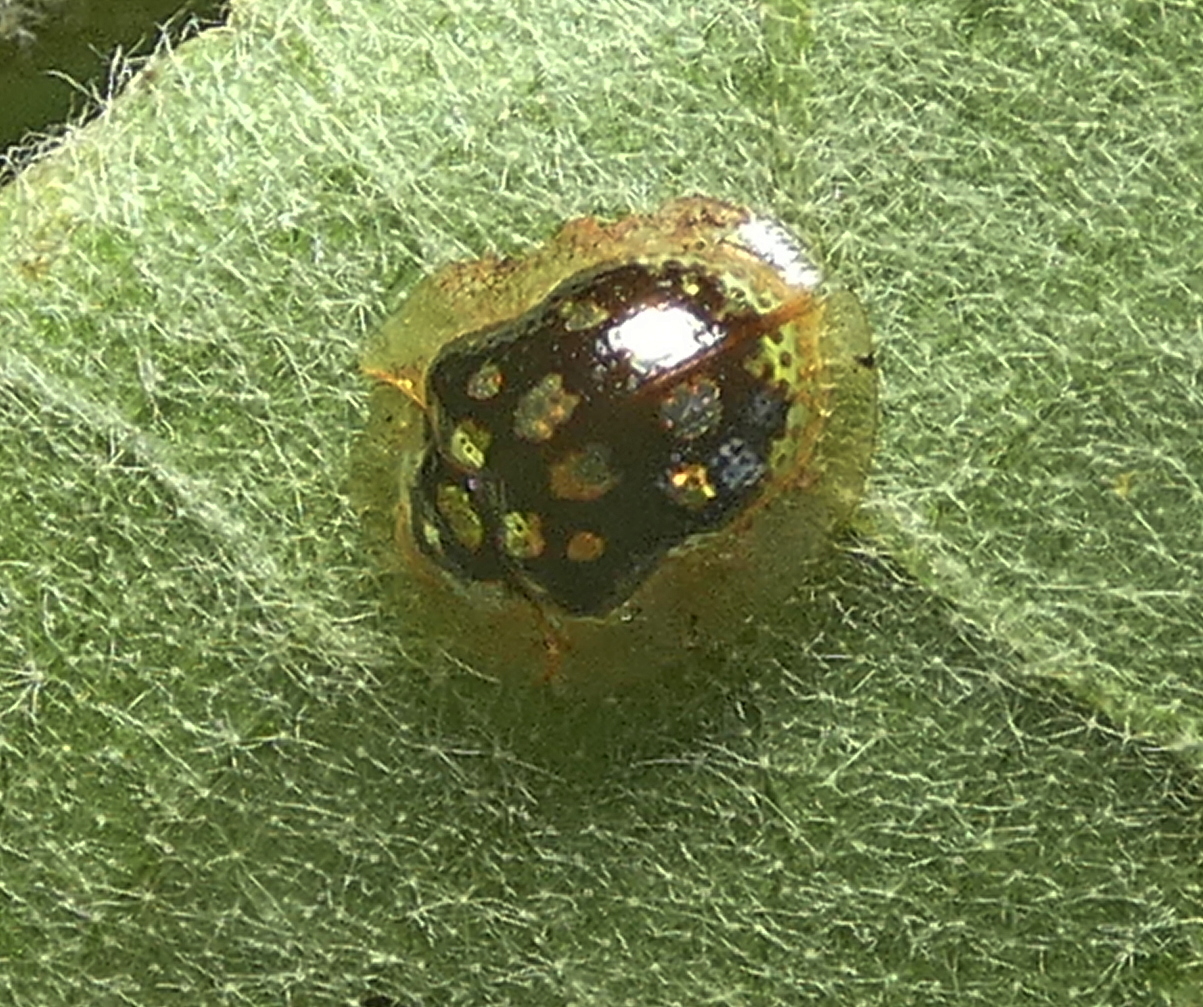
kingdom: Animalia
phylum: Arthropoda
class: Insecta
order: Coleoptera
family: Chrysomelidae
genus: Plagiometriona
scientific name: Plagiometriona microcera
